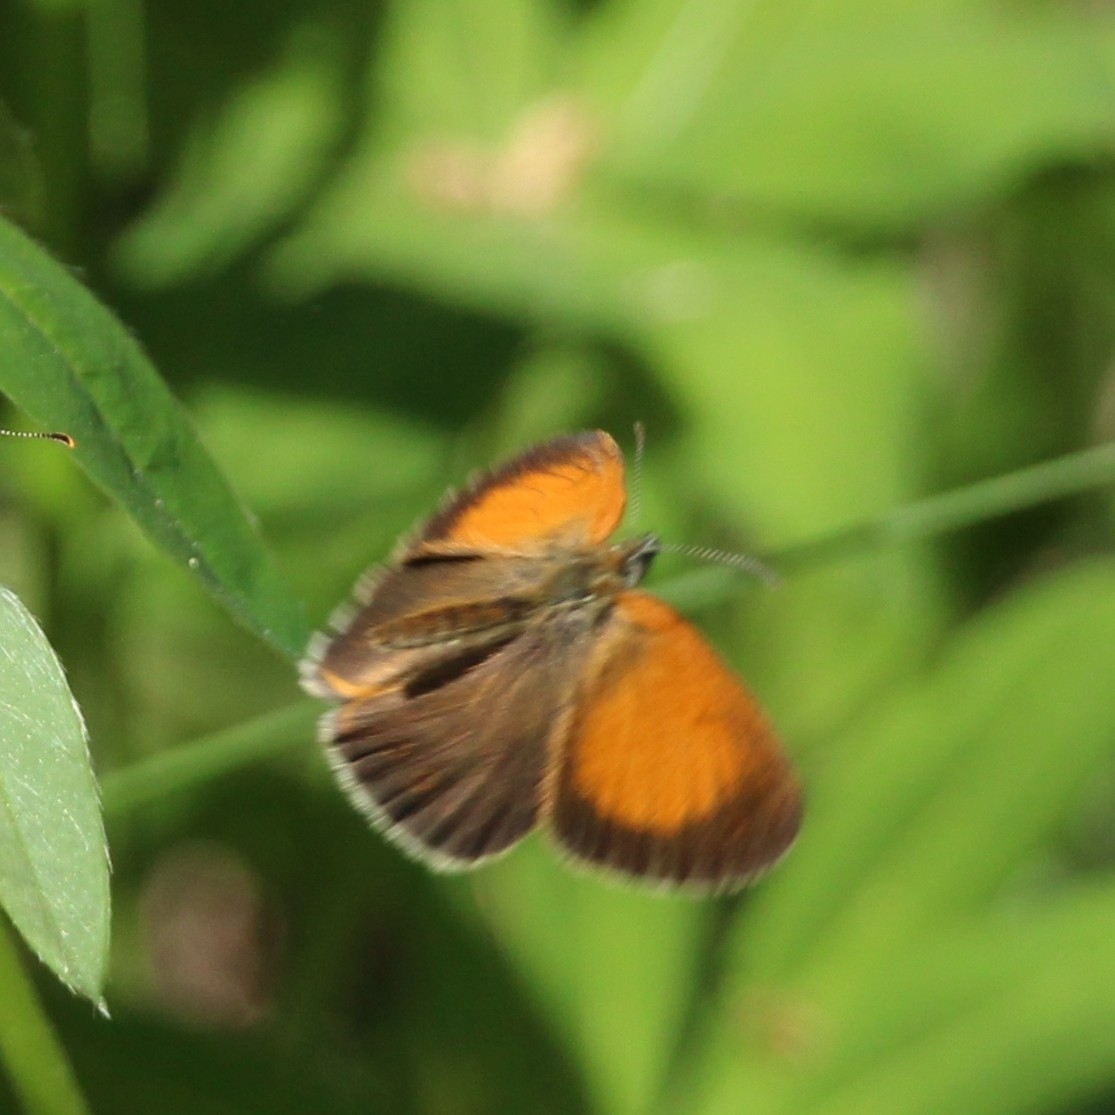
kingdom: Animalia
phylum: Arthropoda
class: Insecta
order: Lepidoptera
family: Nymphalidae
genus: Coenonympha
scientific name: Coenonympha arcania
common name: Pearly heath
